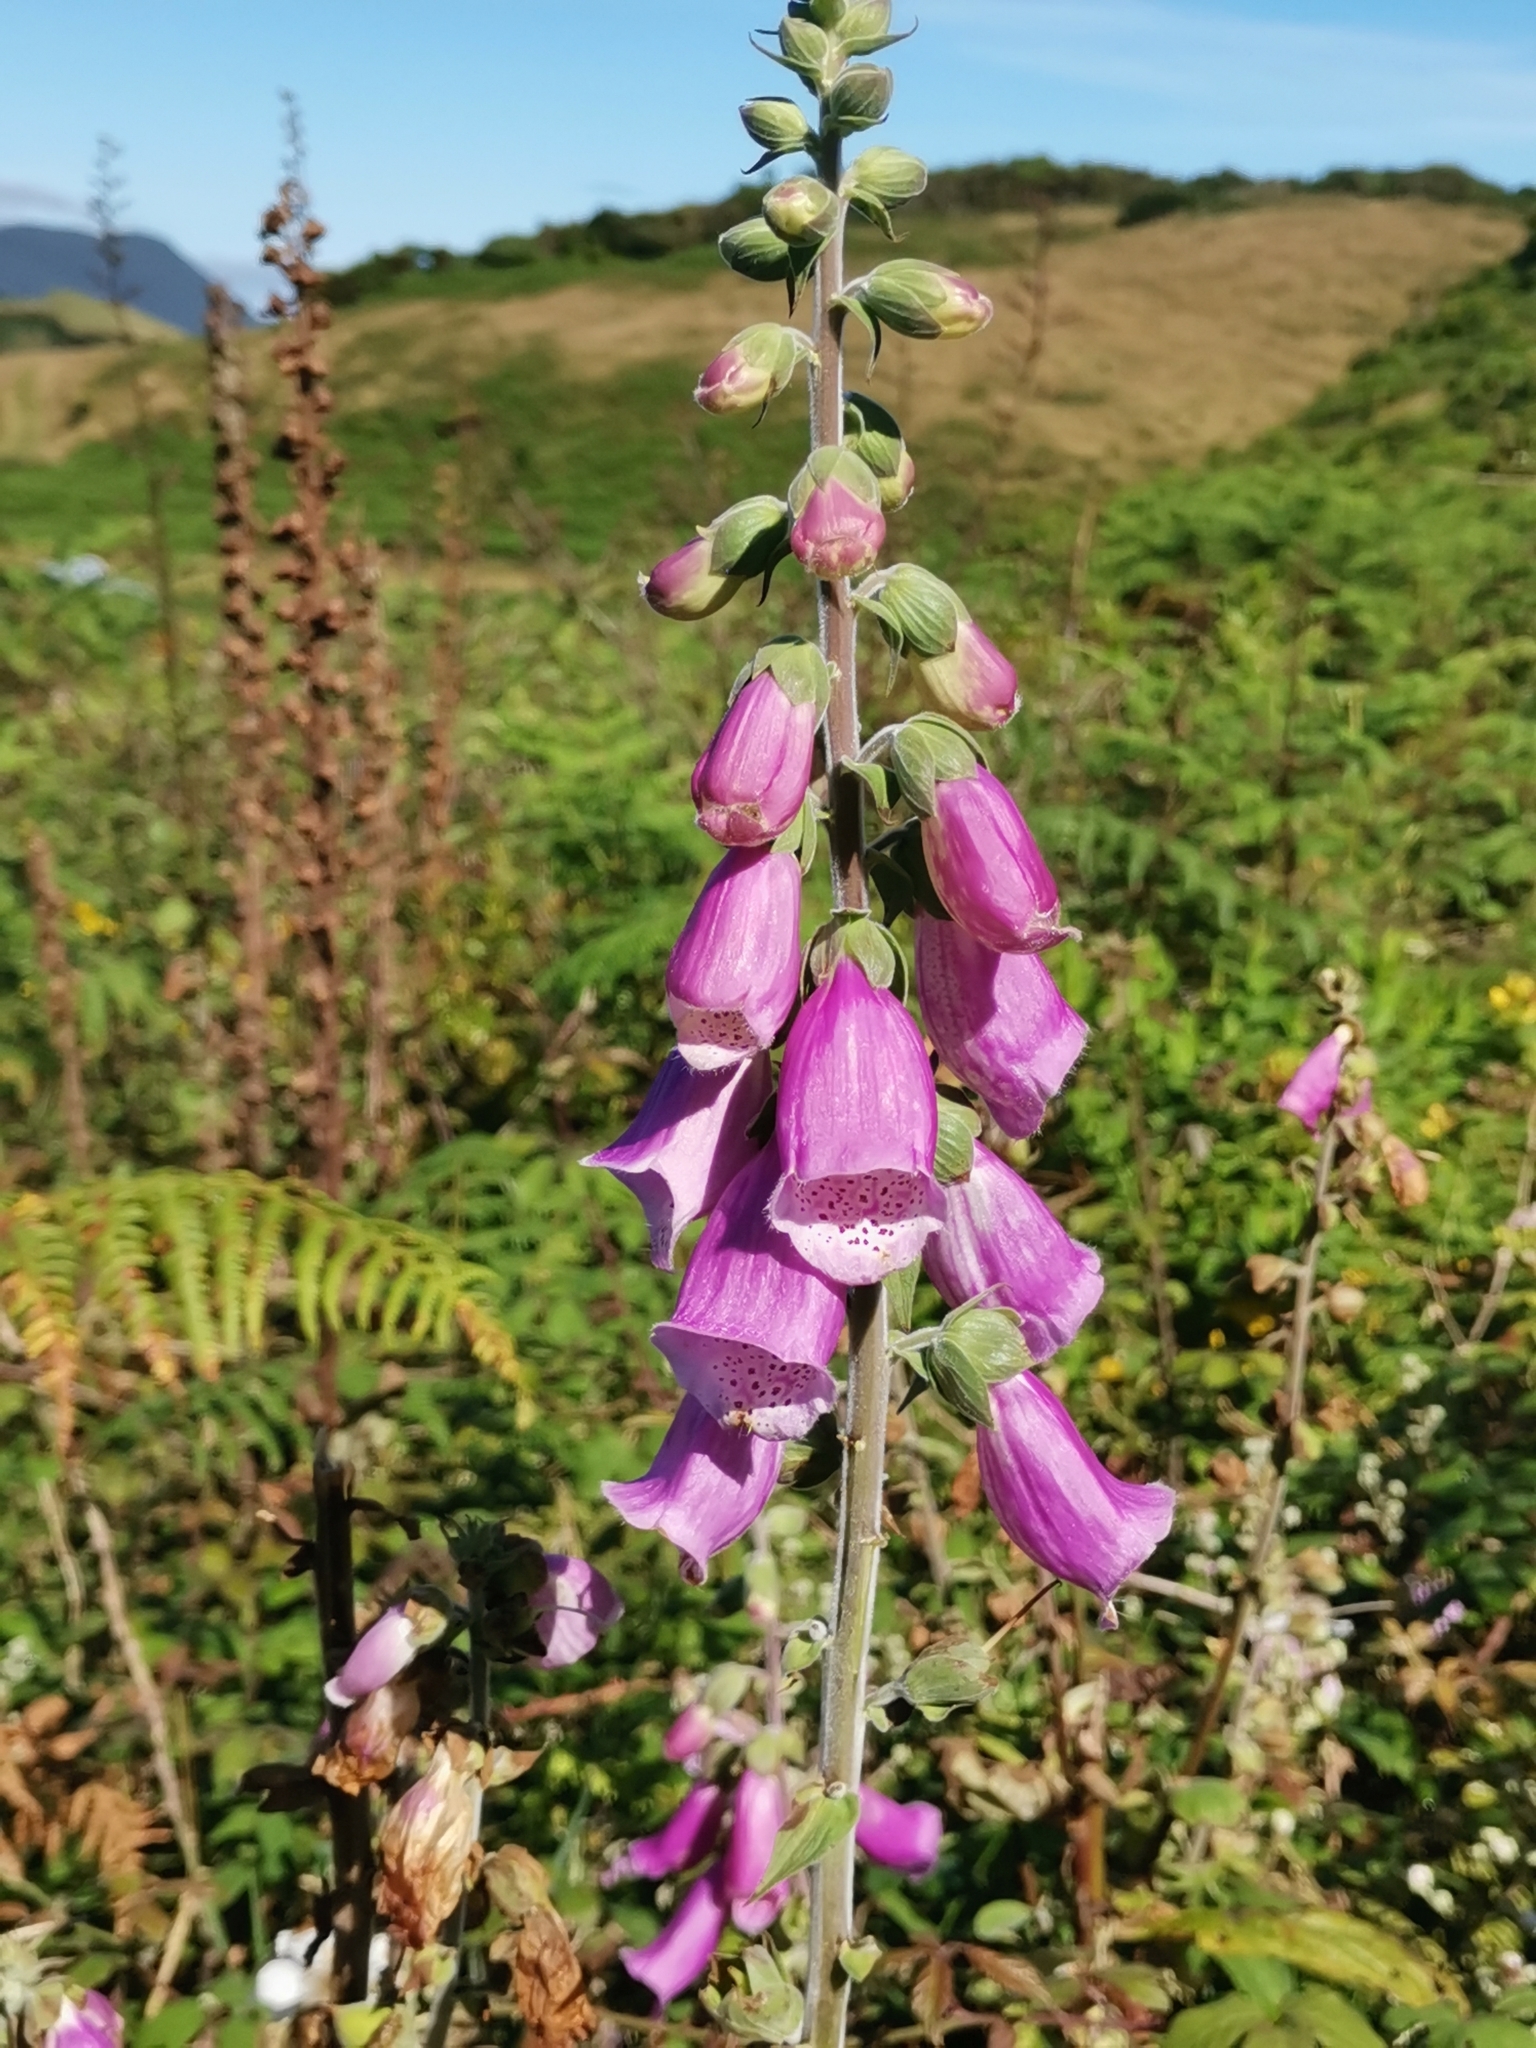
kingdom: Plantae
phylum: Tracheophyta
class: Magnoliopsida
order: Lamiales
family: Plantaginaceae
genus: Digitalis
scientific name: Digitalis purpurea
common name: Foxglove
